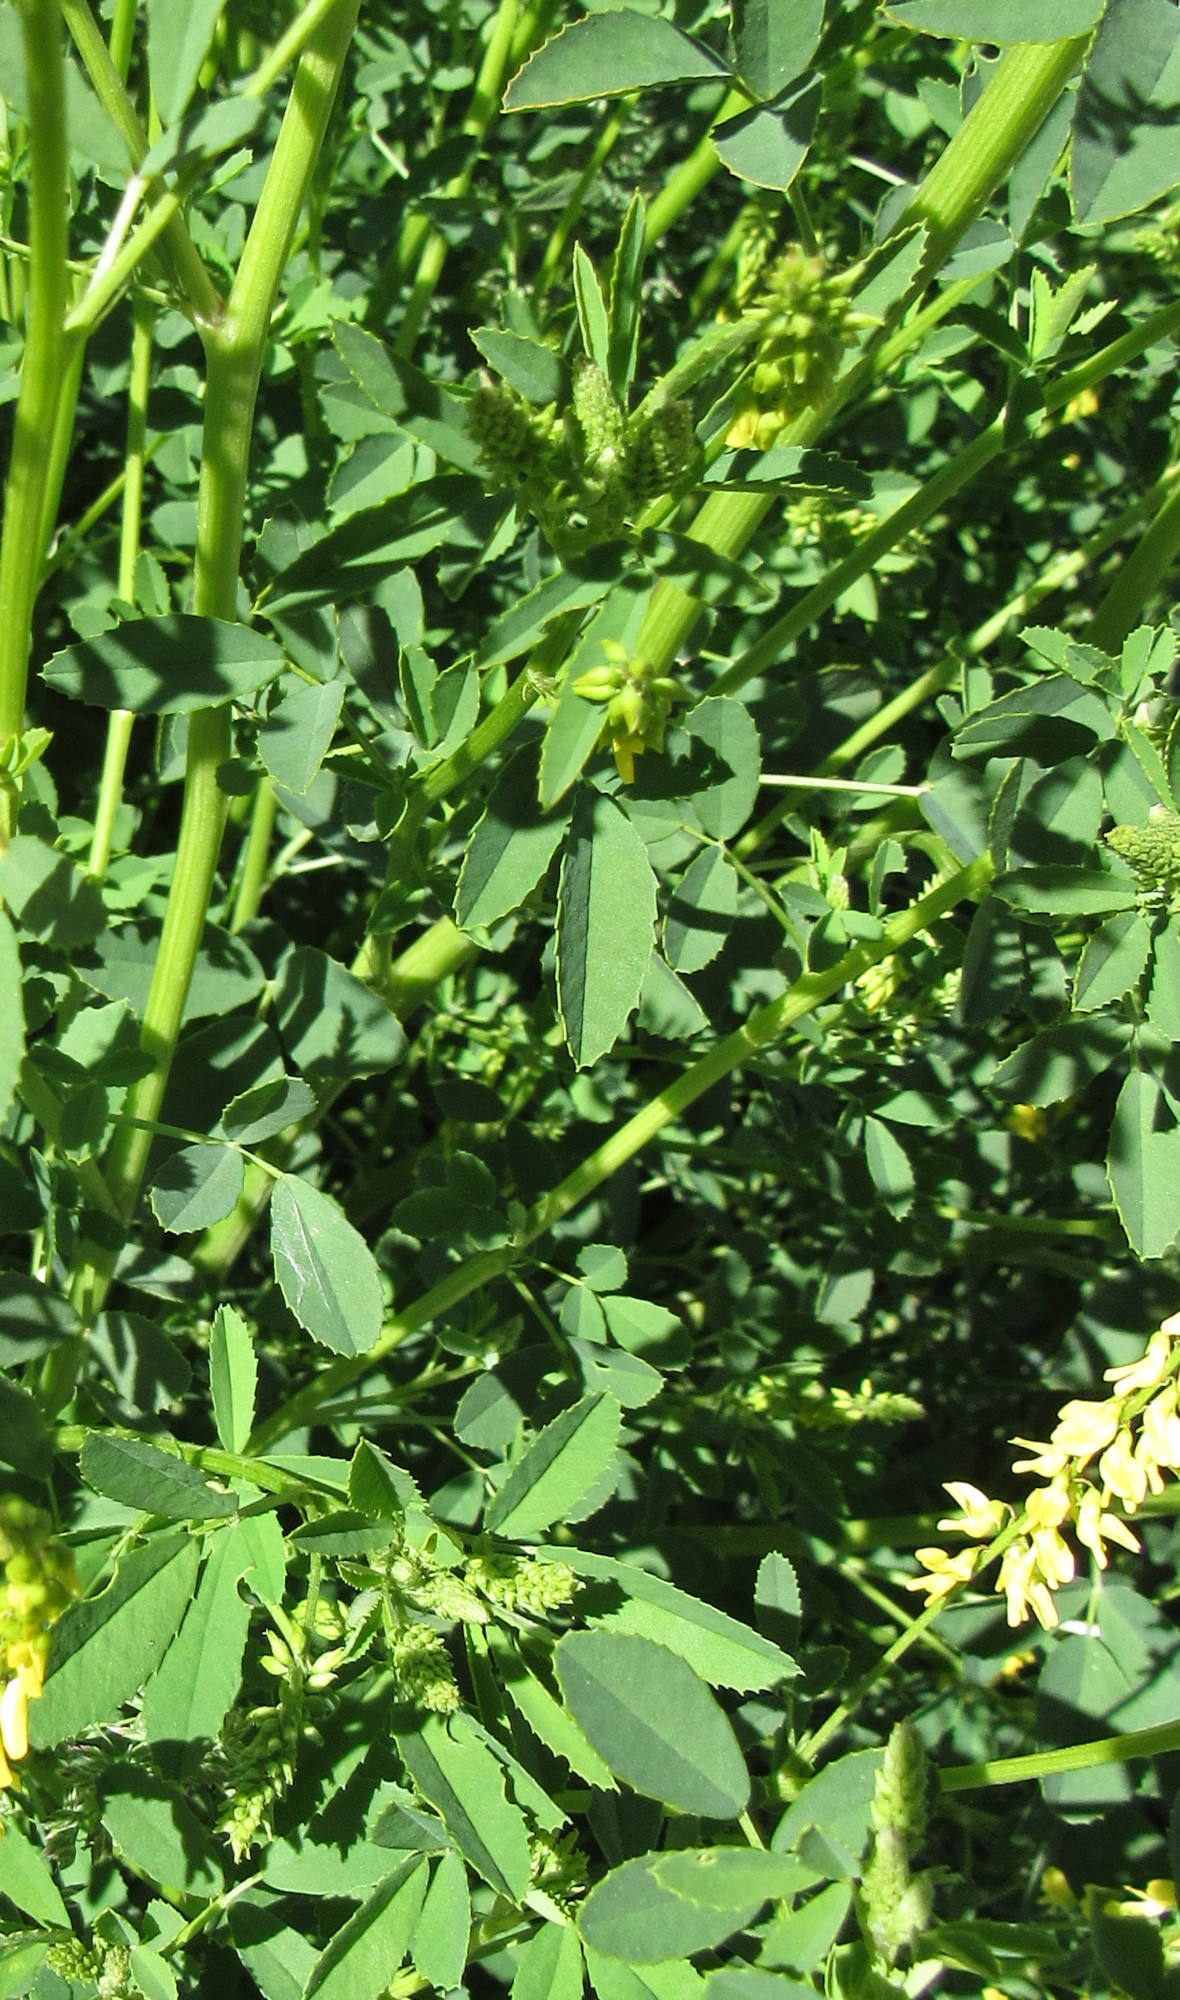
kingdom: Plantae
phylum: Tracheophyta
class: Magnoliopsida
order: Fabales
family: Fabaceae
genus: Melilotus
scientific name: Melilotus officinalis
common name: Sweetclover
